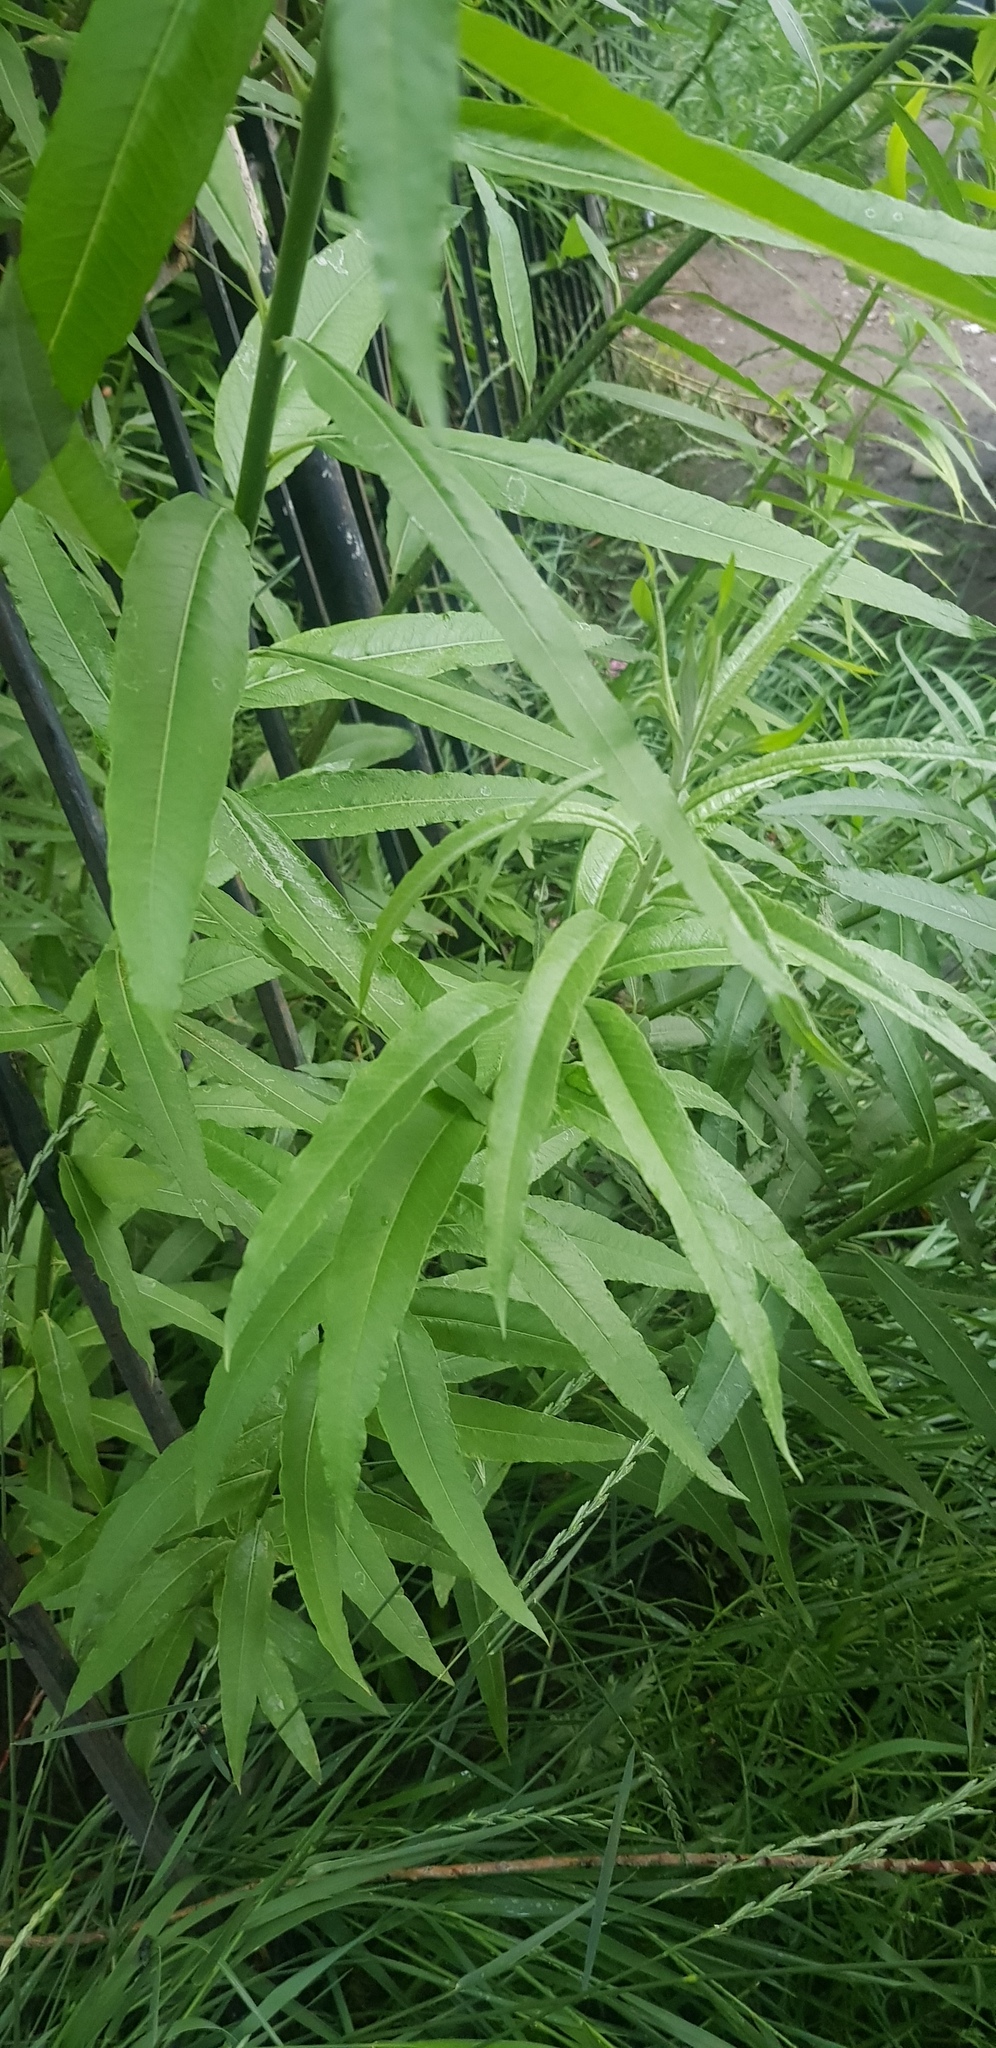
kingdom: Plantae
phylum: Tracheophyta
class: Magnoliopsida
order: Malpighiales
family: Salicaceae
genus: Salix
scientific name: Salix viminalis
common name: Osier
